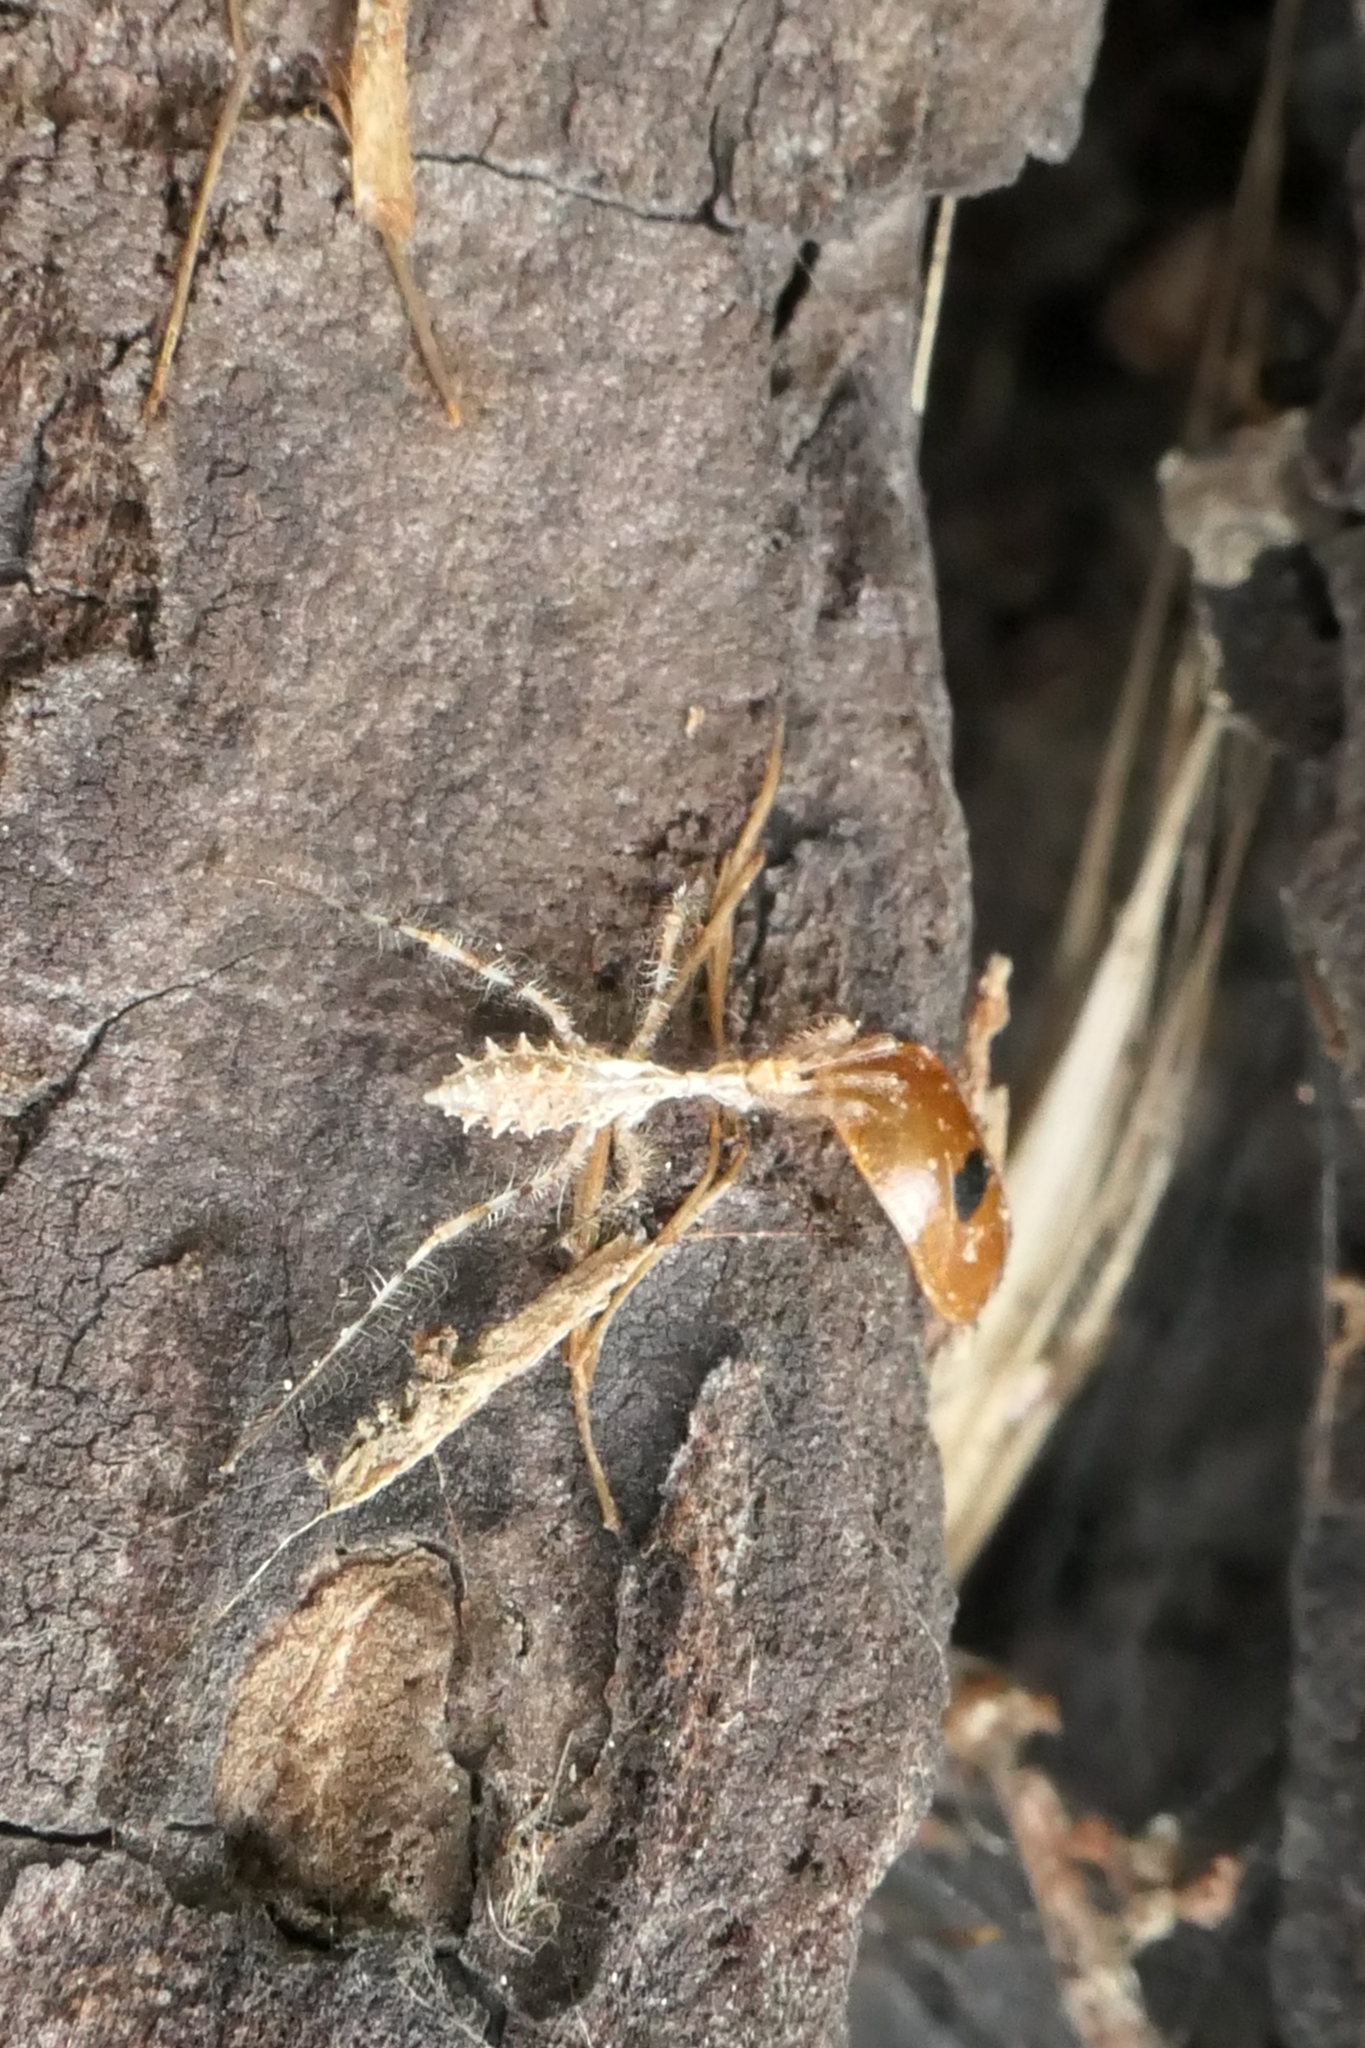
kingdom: Animalia
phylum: Arthropoda
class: Insecta
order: Hemiptera
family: Reduviidae
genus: Stenolemus
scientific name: Stenolemus fraterculus
